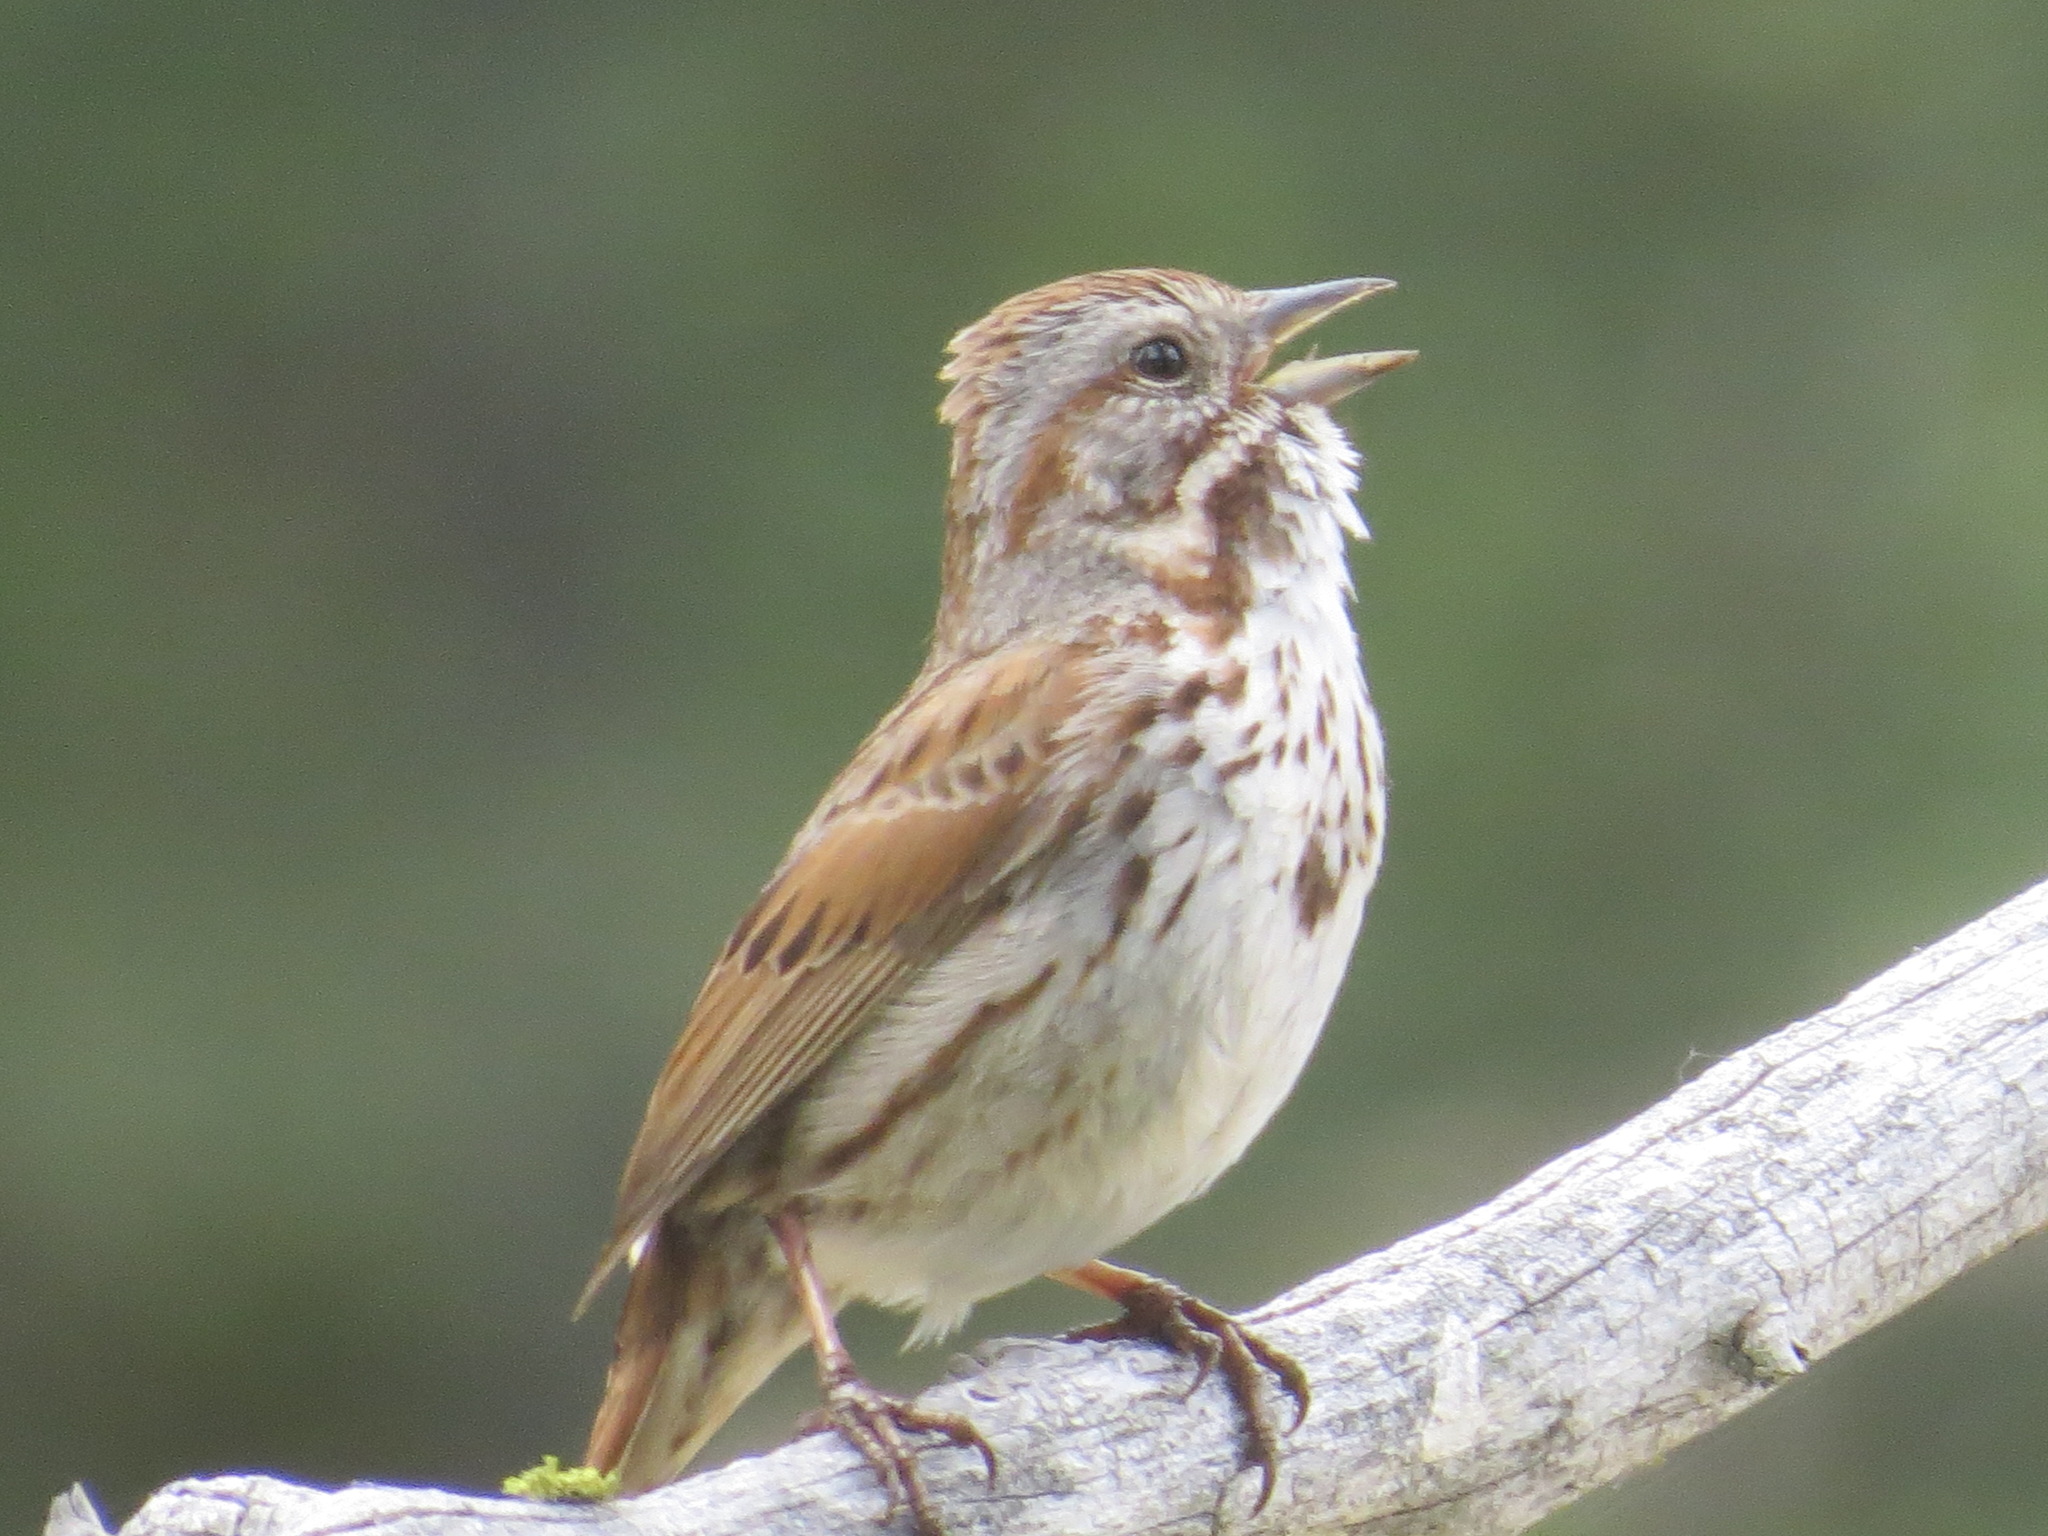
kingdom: Animalia
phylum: Chordata
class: Aves
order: Passeriformes
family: Passerellidae
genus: Melospiza
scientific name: Melospiza melodia
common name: Song sparrow
